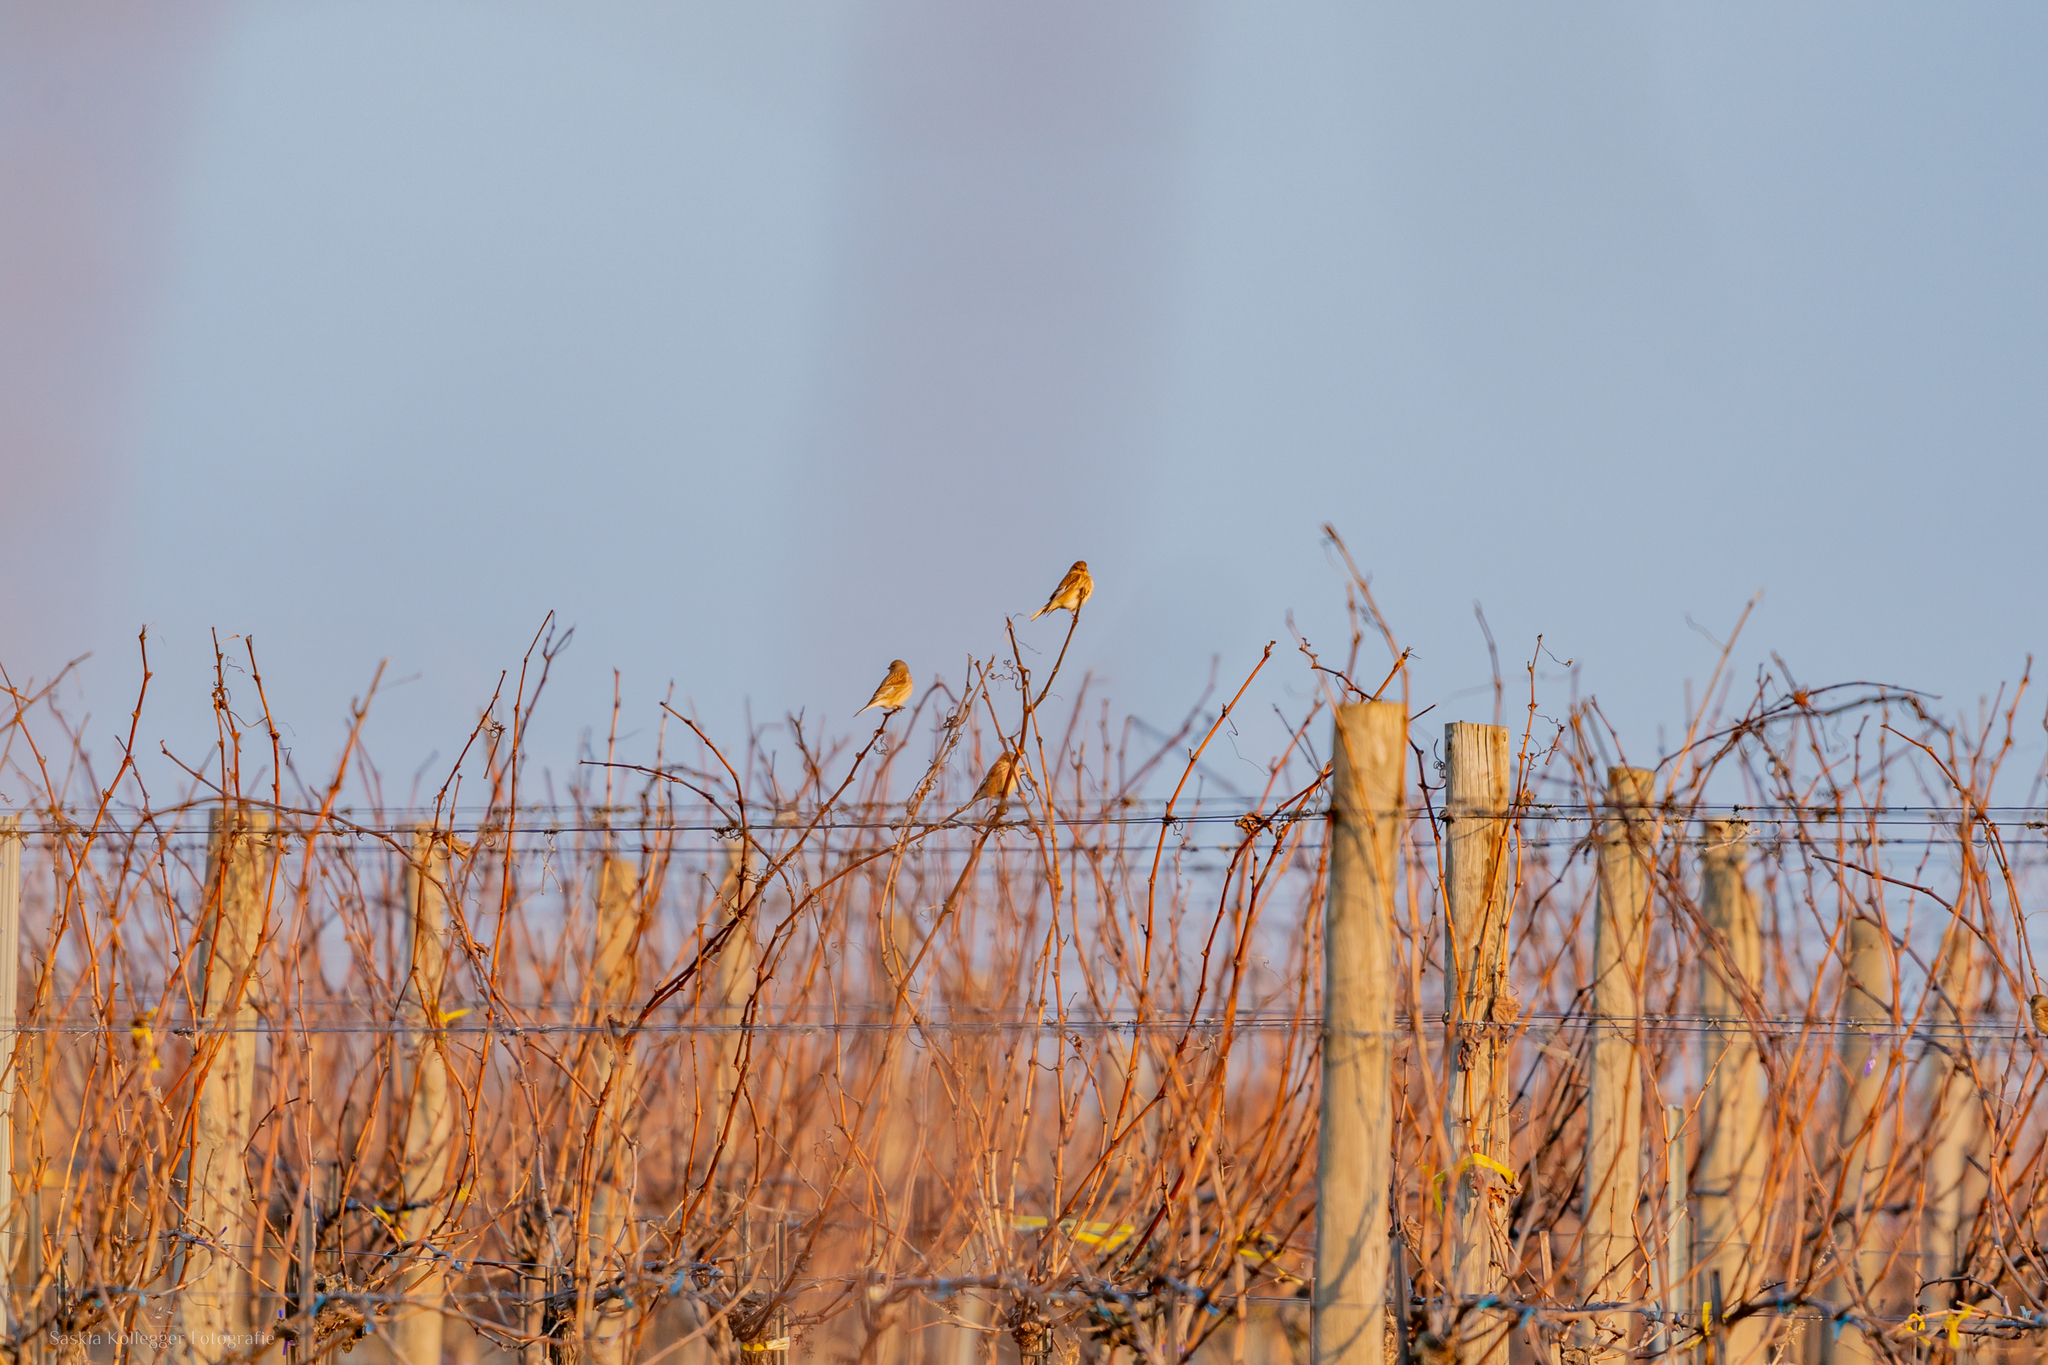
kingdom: Animalia
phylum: Chordata
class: Aves
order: Passeriformes
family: Fringillidae
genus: Linaria
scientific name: Linaria cannabina
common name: Common linnet
